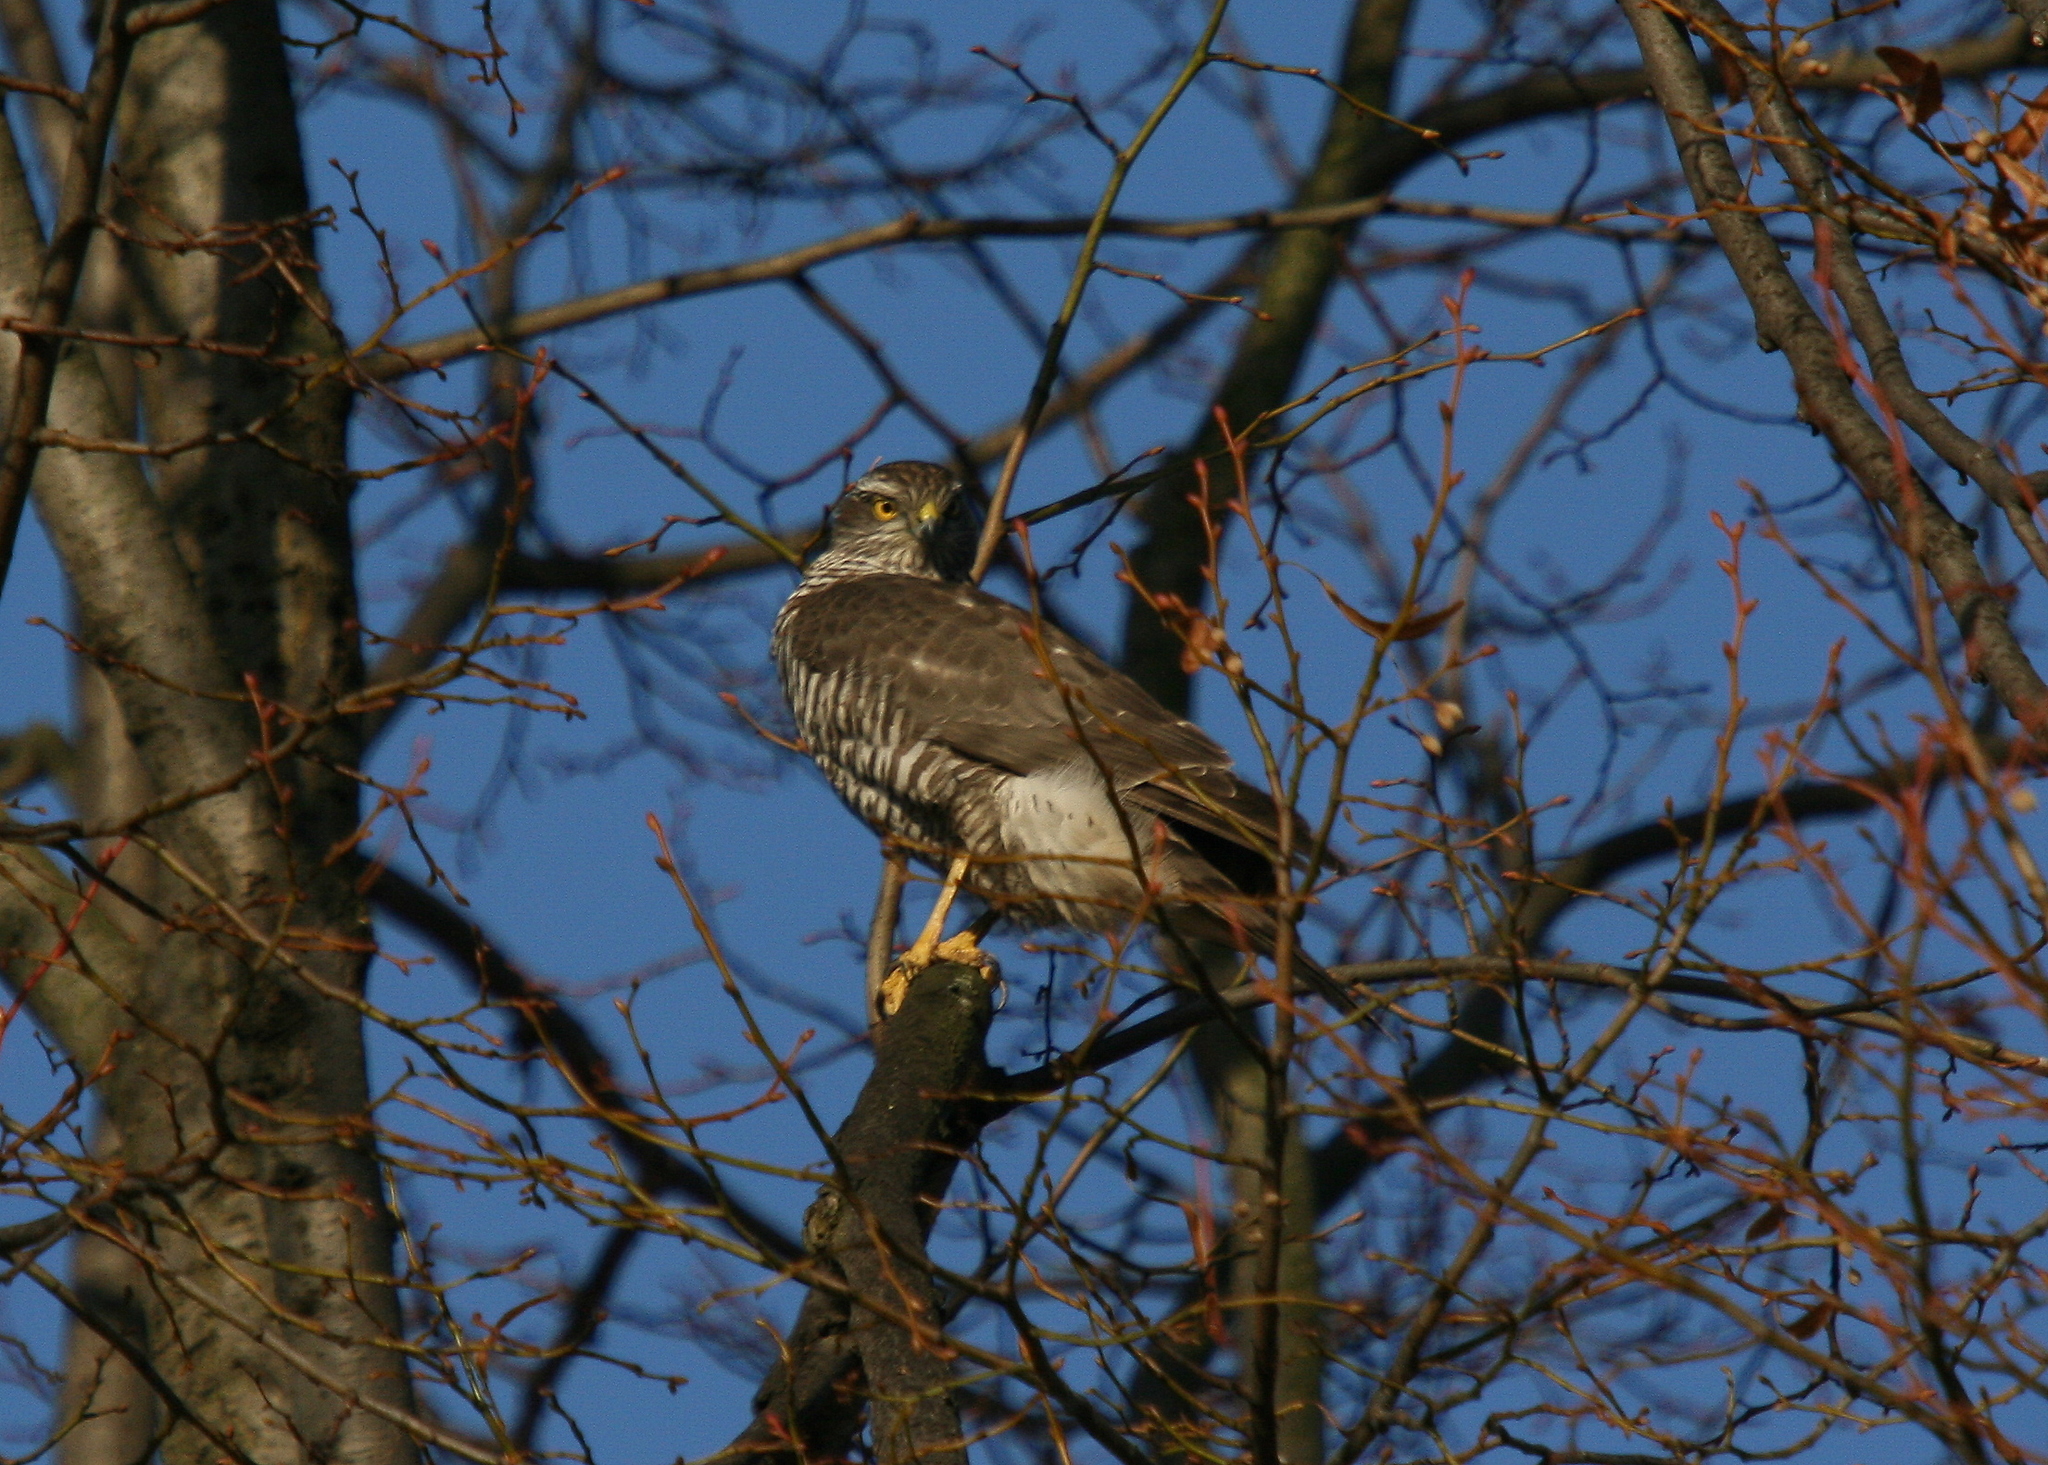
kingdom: Animalia
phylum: Chordata
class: Aves
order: Accipitriformes
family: Accipitridae
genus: Accipiter
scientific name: Accipiter nisus
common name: Eurasian sparrowhawk
